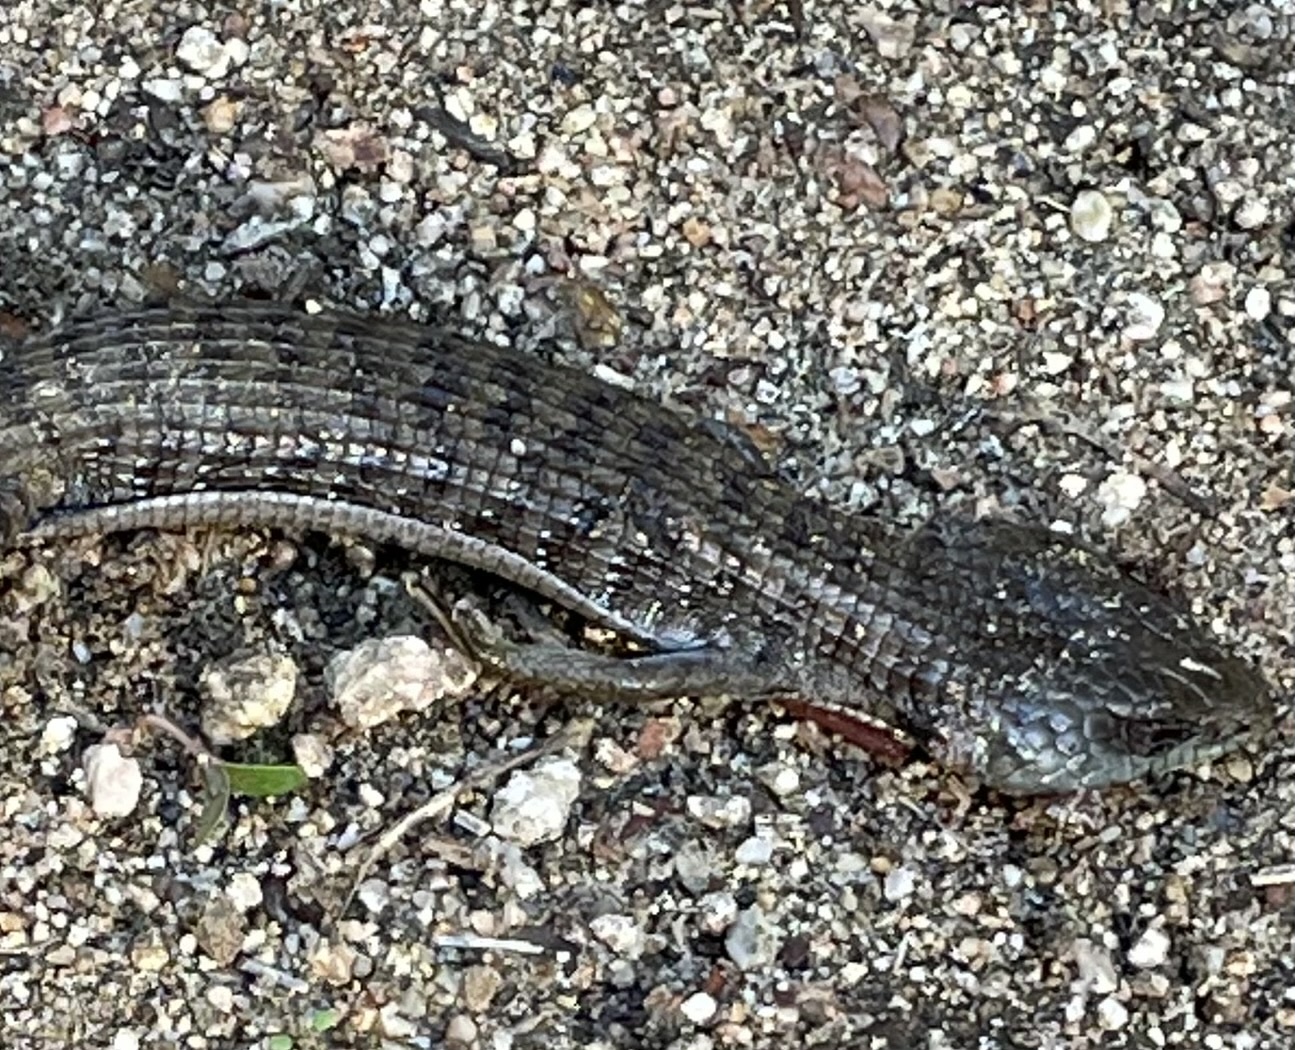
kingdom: Animalia
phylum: Chordata
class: Squamata
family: Anguidae
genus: Elgaria
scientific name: Elgaria multicarinata
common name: Southern alligator lizard
